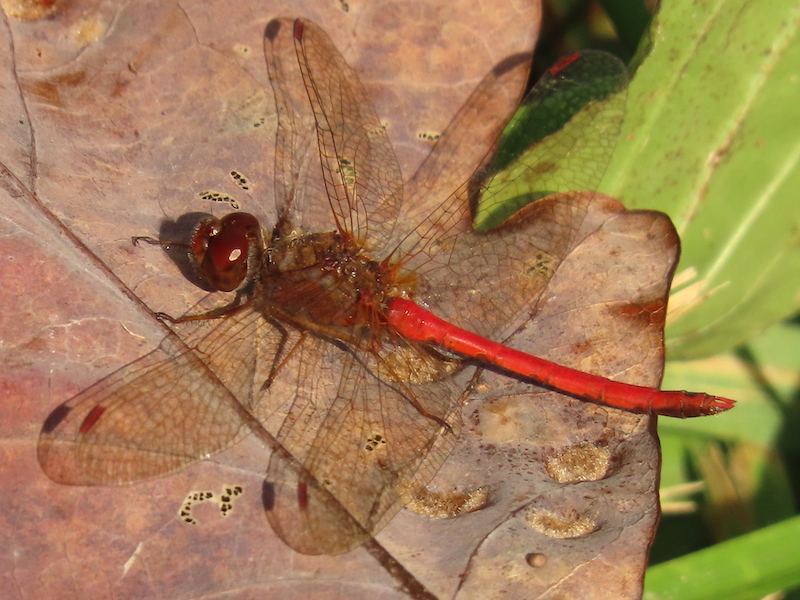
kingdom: Animalia
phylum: Arthropoda
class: Insecta
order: Odonata
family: Libellulidae
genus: Sympetrum
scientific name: Sympetrum vicinum
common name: Autumn meadowhawk
